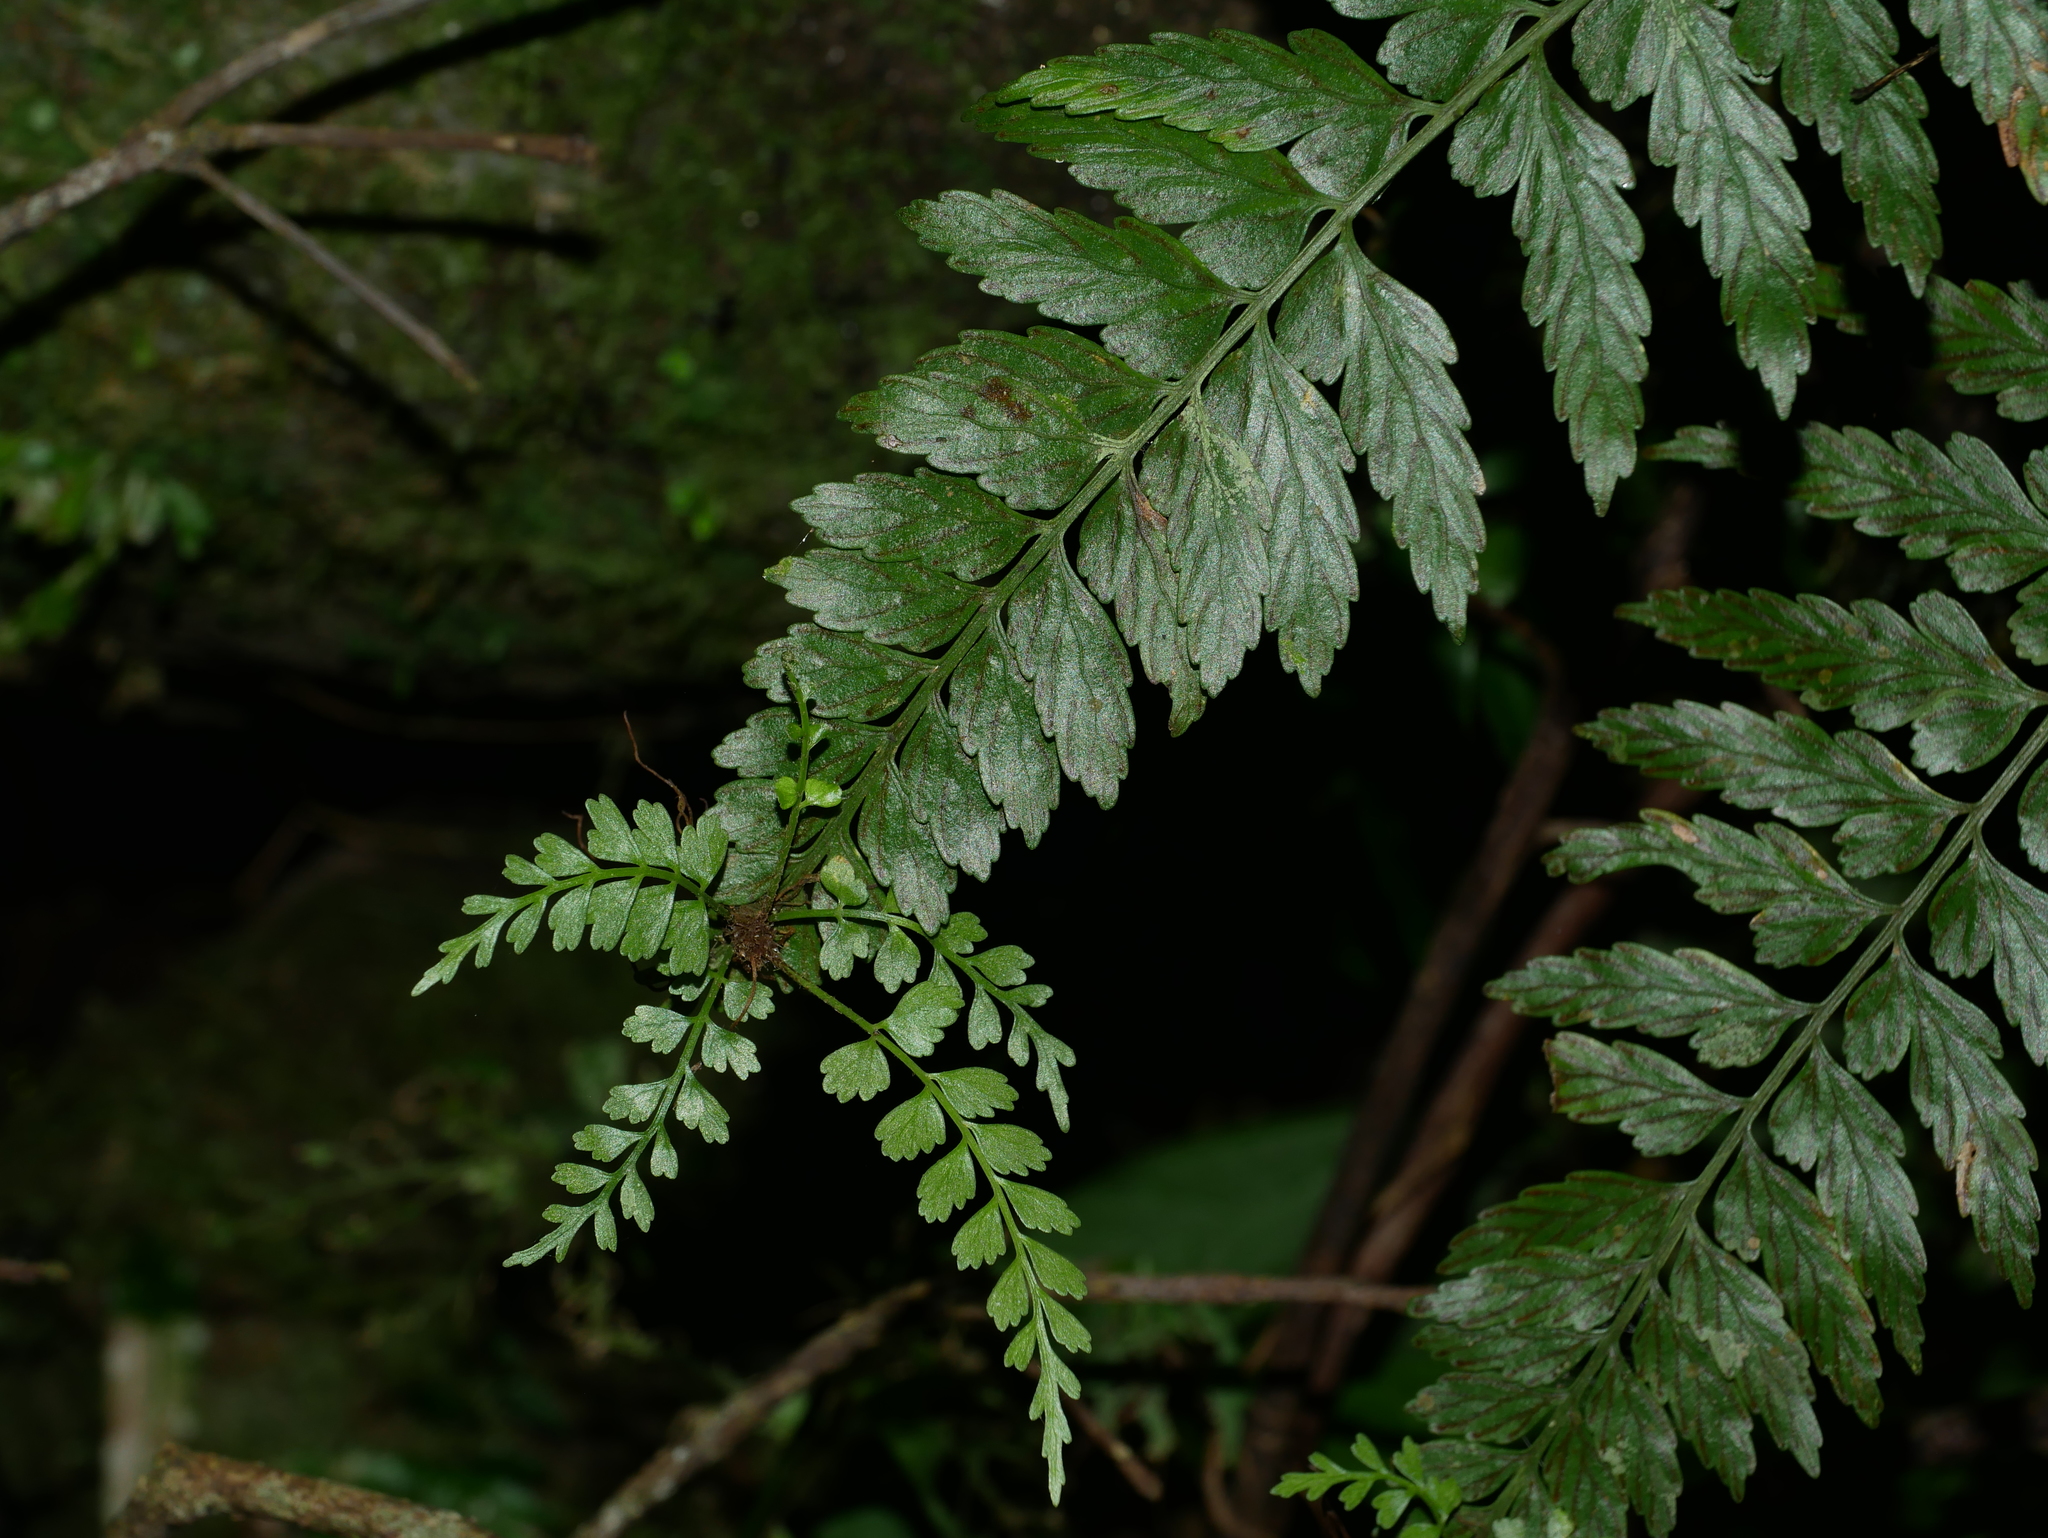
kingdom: Plantae
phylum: Tracheophyta
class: Polypodiopsida
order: Polypodiales
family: Aspleniaceae
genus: Asplenium
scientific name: Asplenium cuneatiforme
